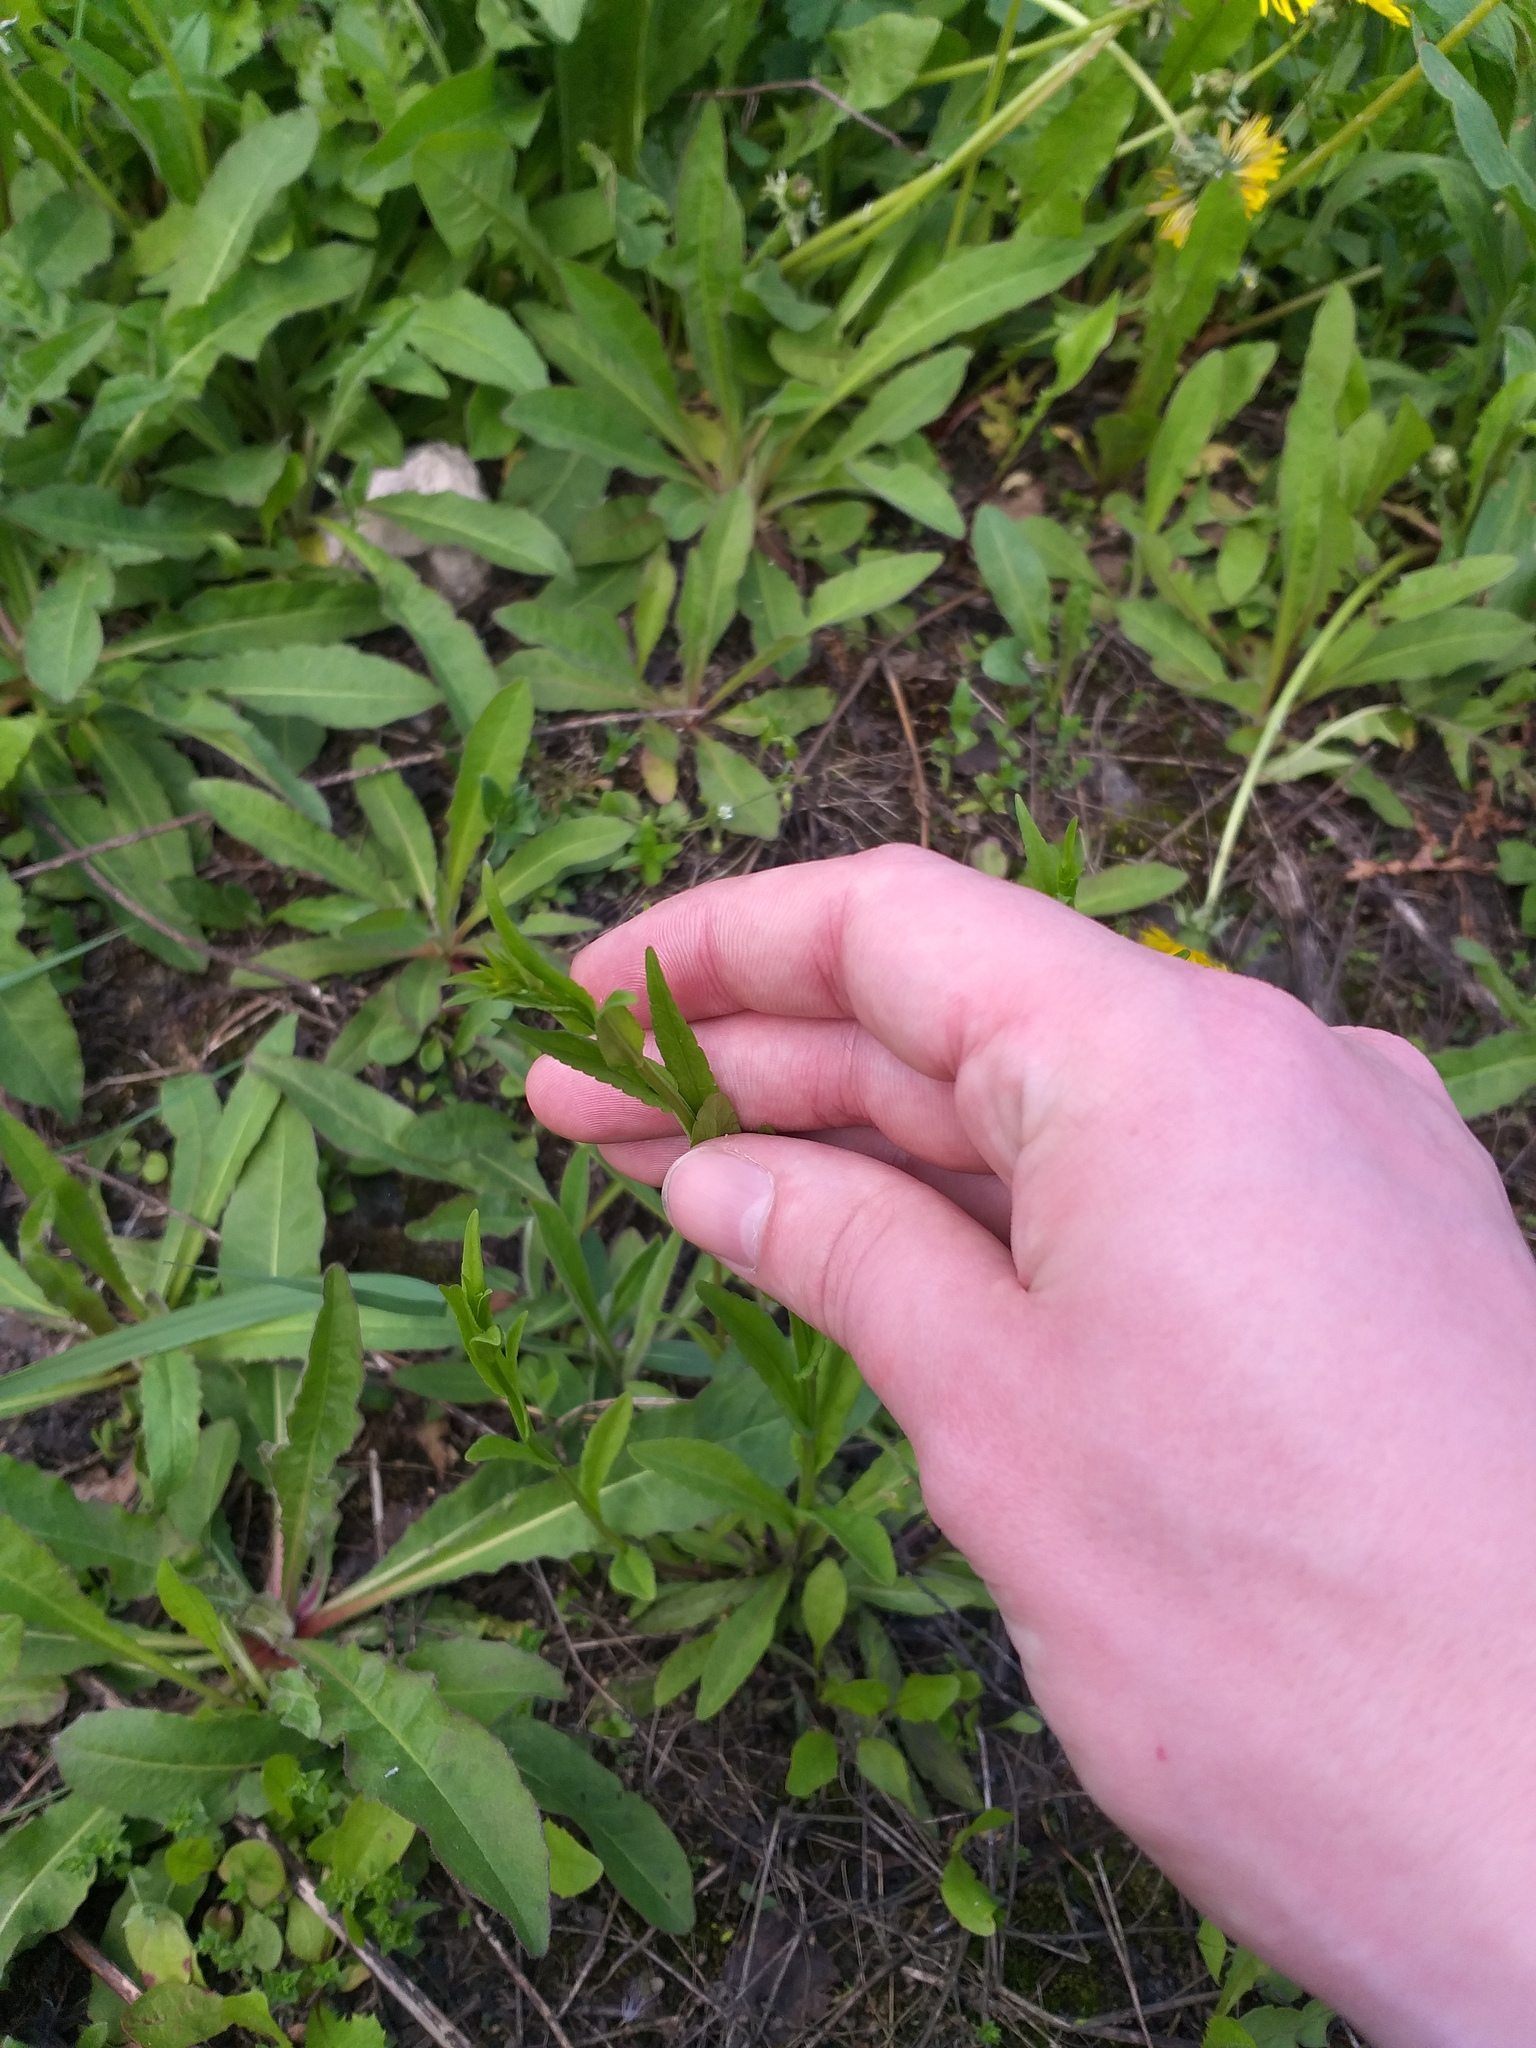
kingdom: Plantae
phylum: Tracheophyta
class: Magnoliopsida
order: Asterales
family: Campanulaceae
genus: Campanula
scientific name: Campanula patula
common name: Spreading bellflower
